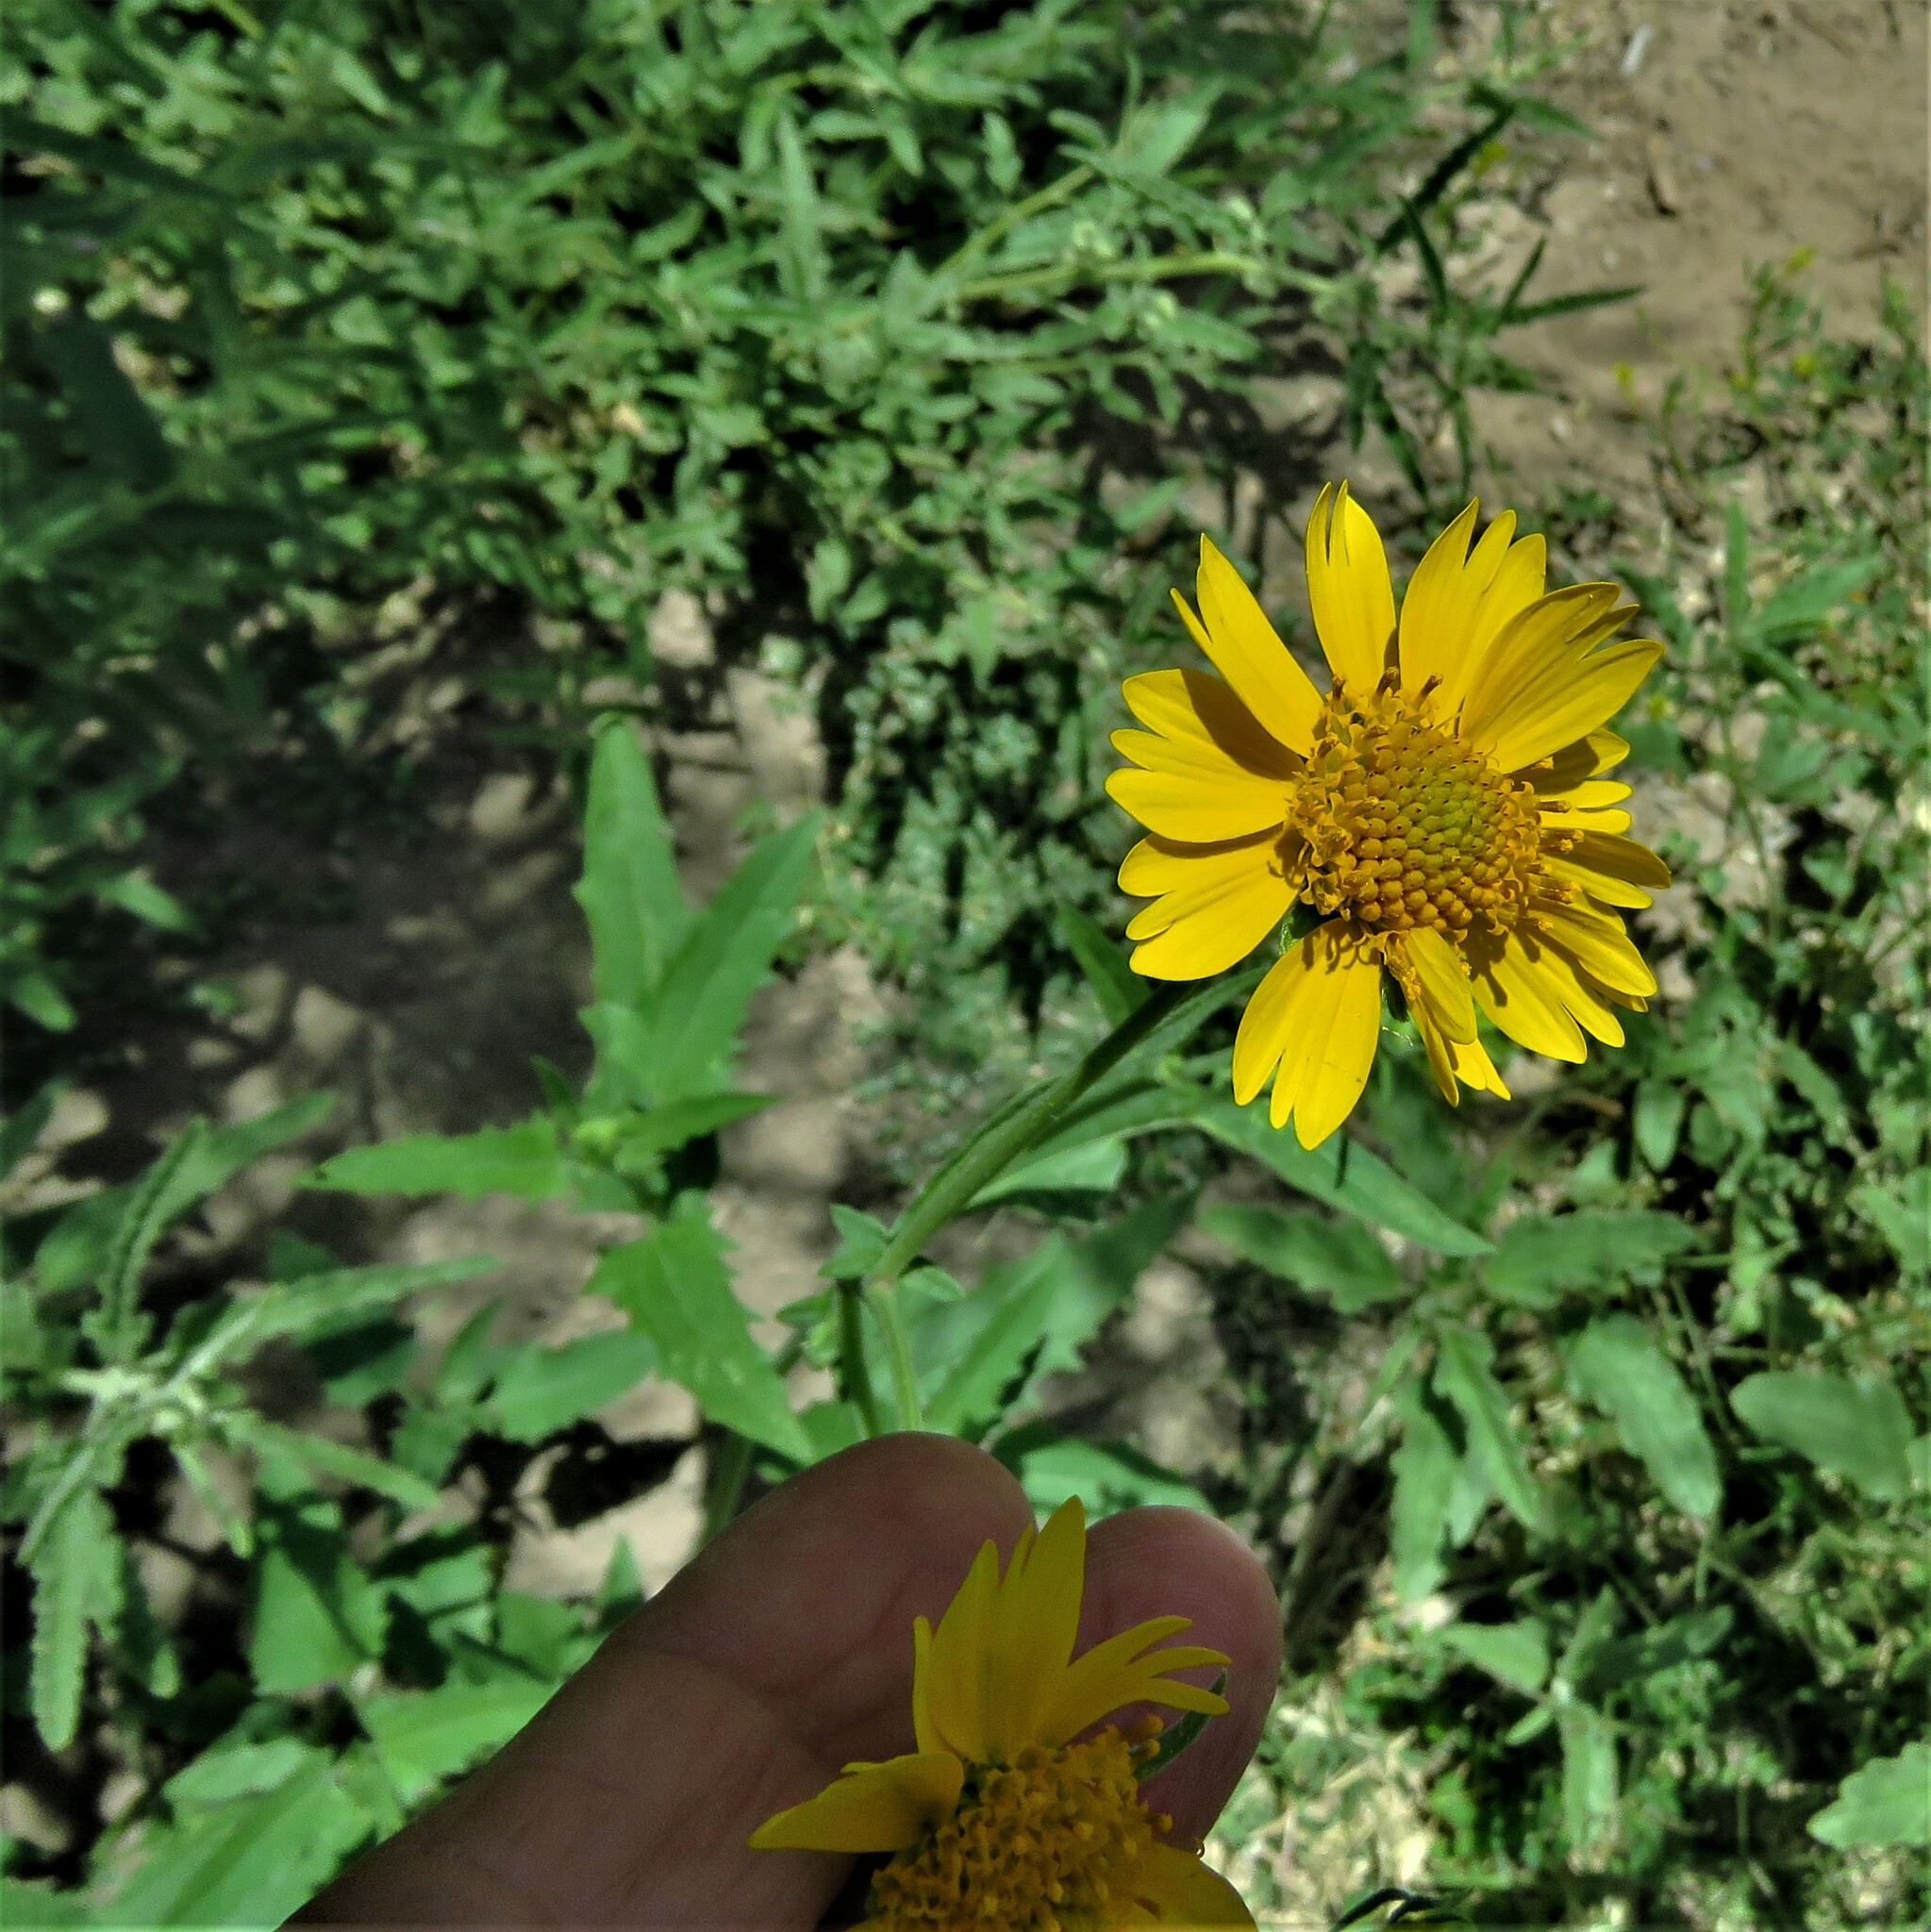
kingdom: Plantae
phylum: Tracheophyta
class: Magnoliopsida
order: Asterales
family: Asteraceae
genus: Verbesina
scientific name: Verbesina encelioides
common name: Golden crownbeard
